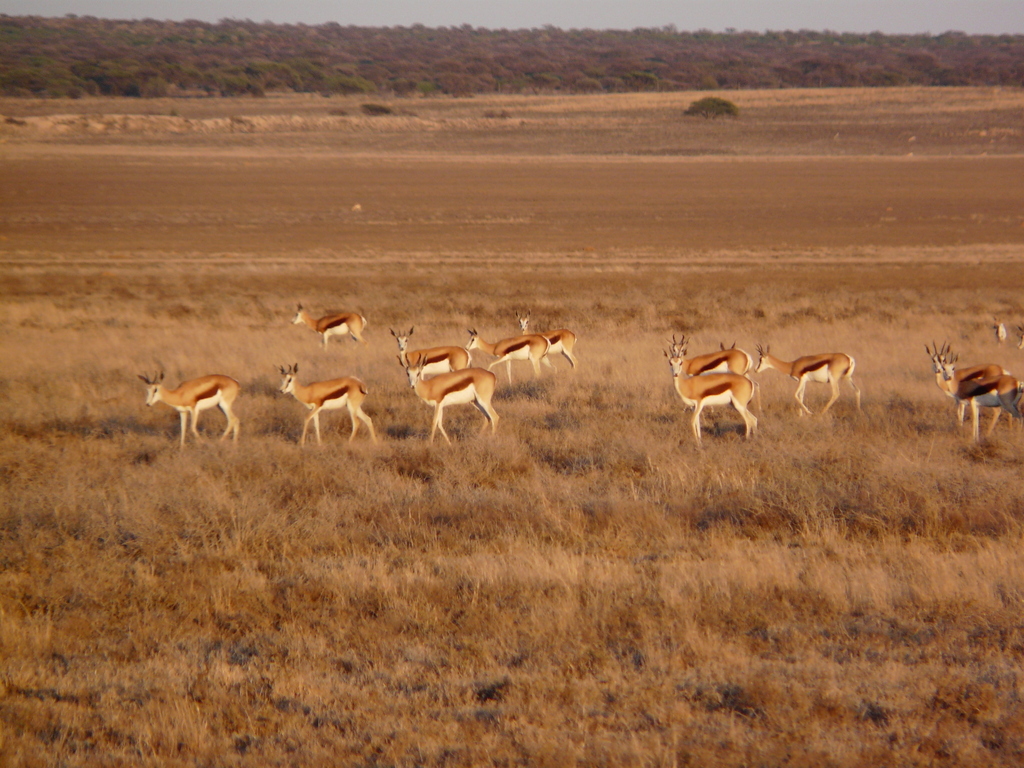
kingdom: Animalia
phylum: Chordata
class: Mammalia
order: Artiodactyla
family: Bovidae
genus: Antidorcas
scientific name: Antidorcas marsupialis
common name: Springbok
